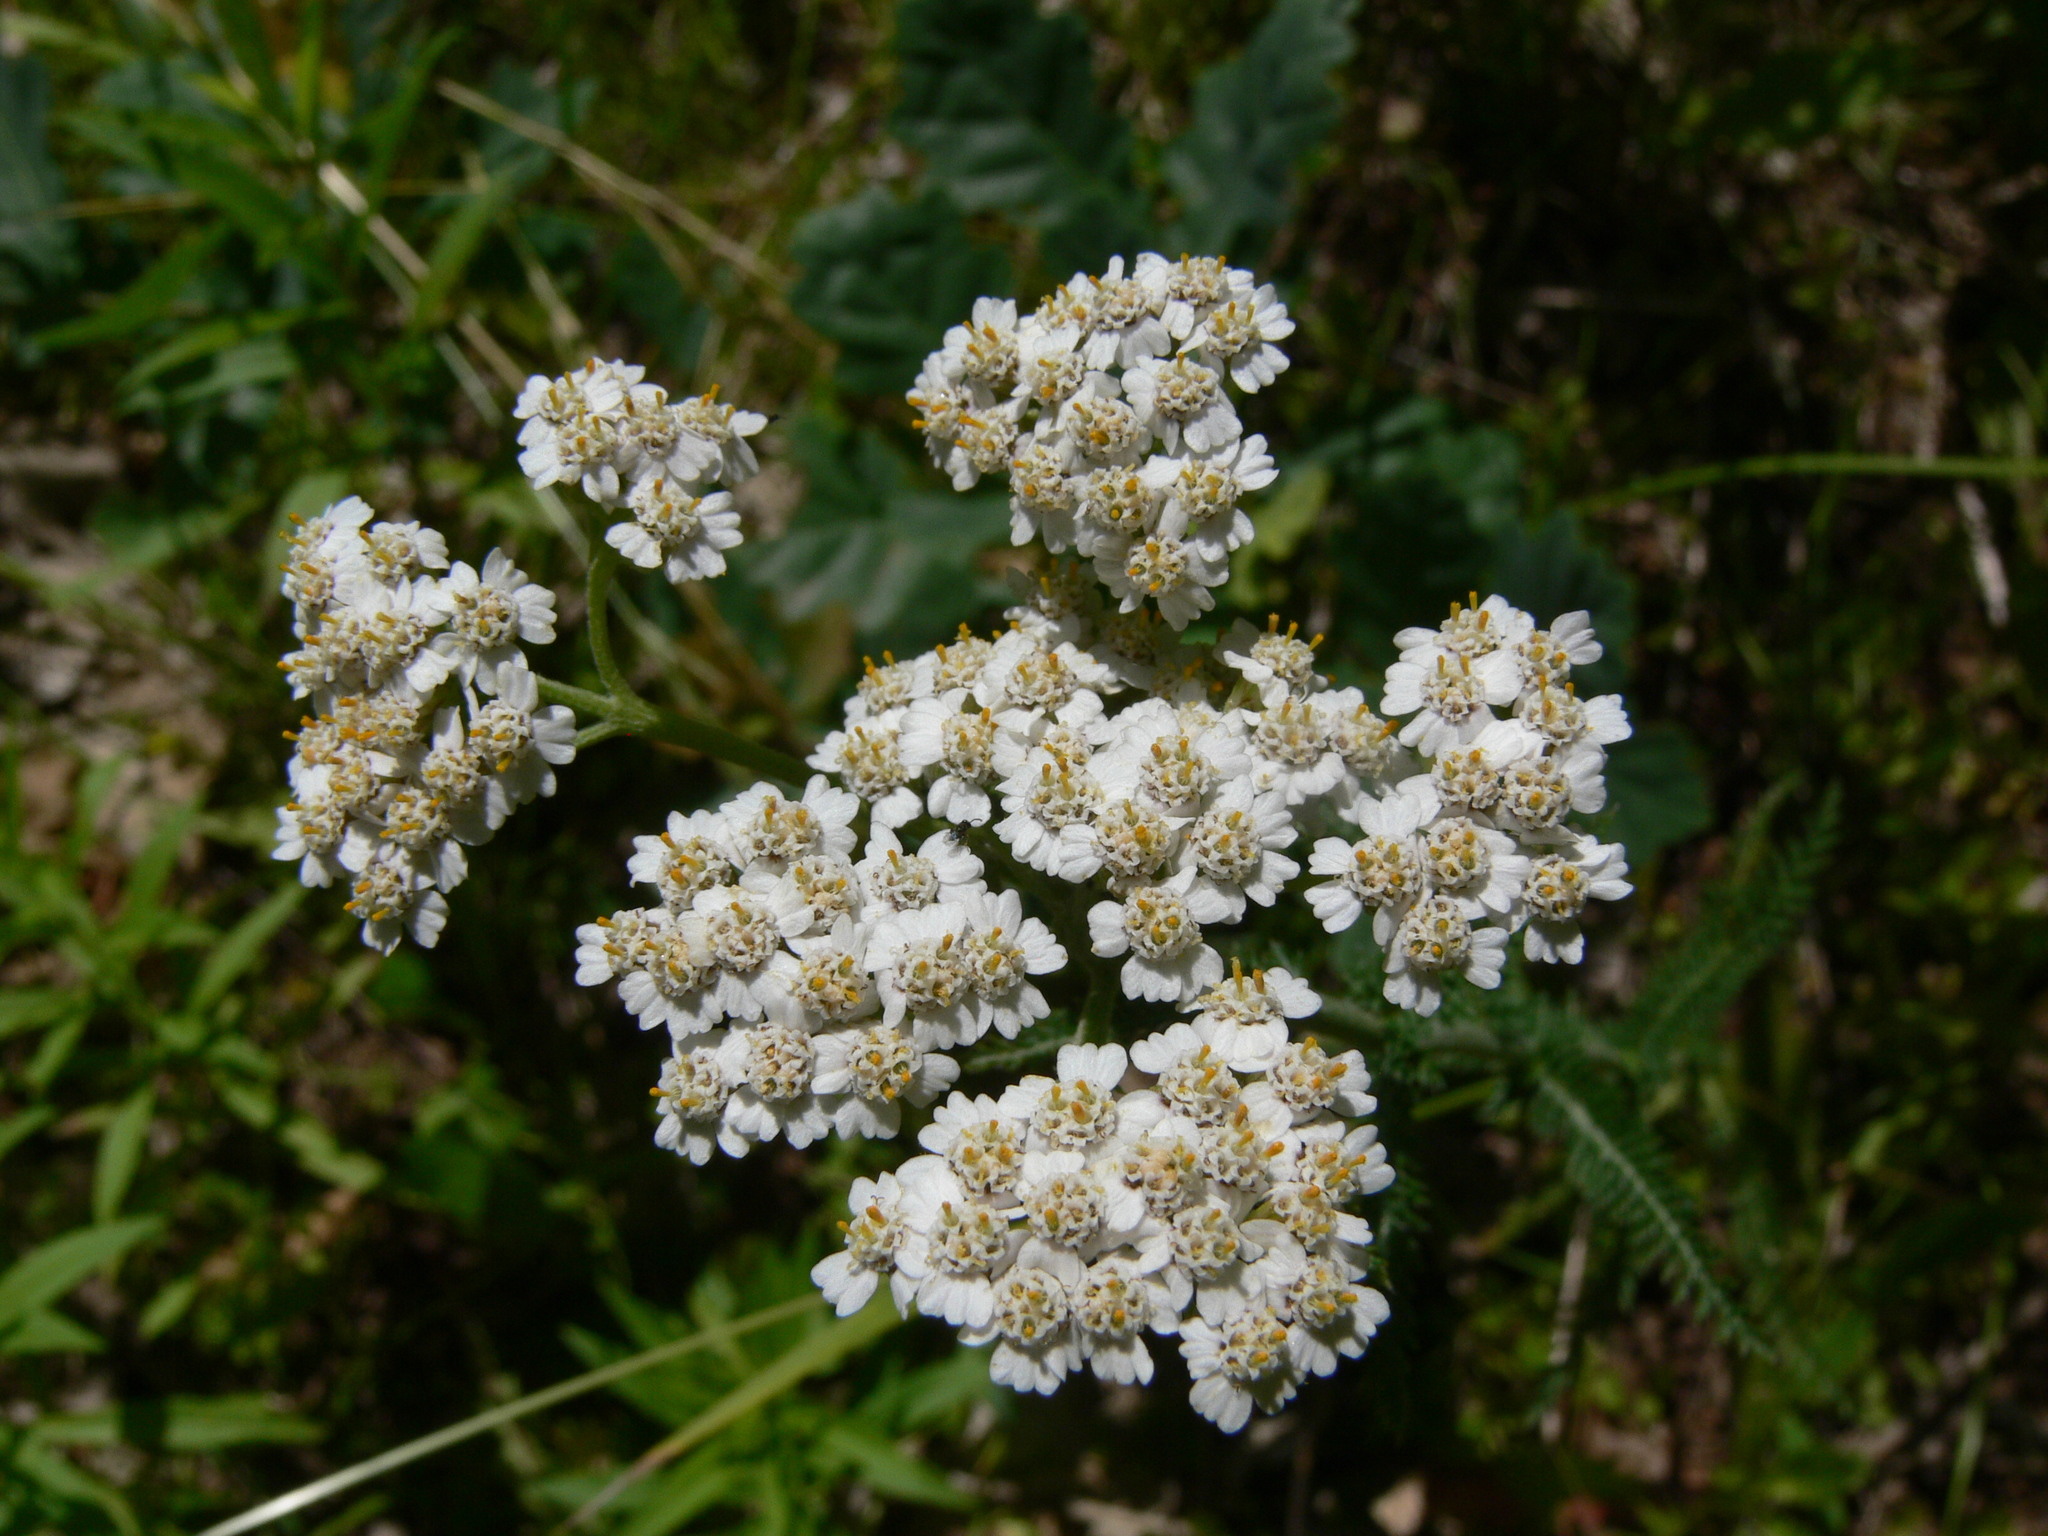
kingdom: Plantae
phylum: Tracheophyta
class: Magnoliopsida
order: Asterales
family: Asteraceae
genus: Achillea
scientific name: Achillea millefolium
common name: Yarrow
